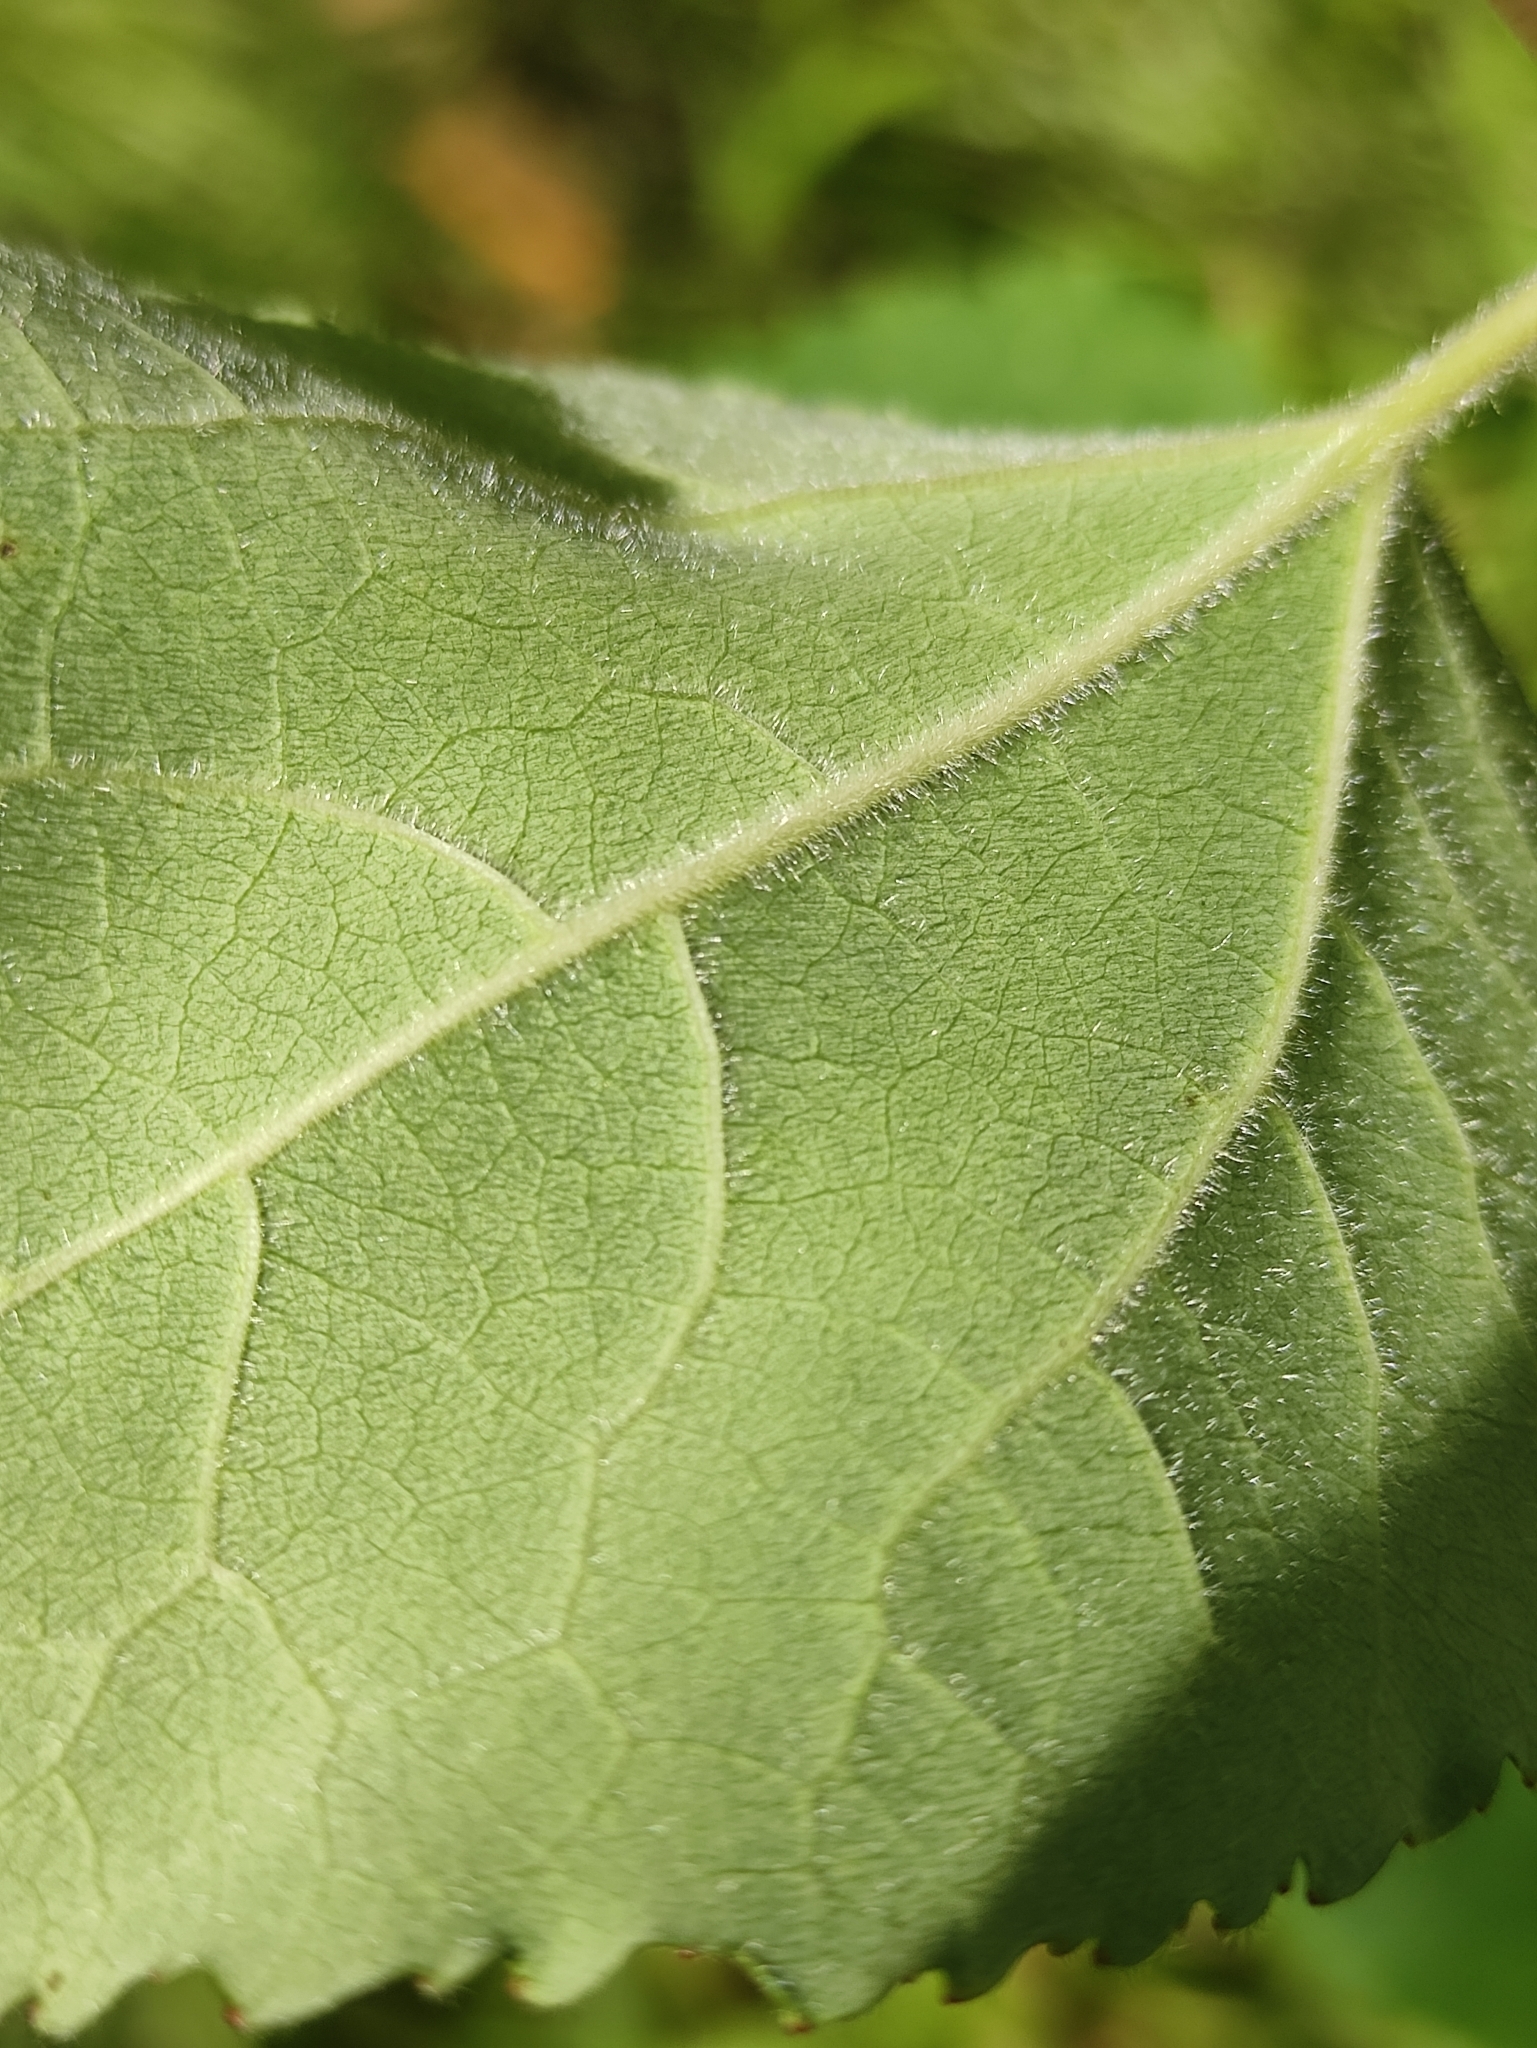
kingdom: Plantae
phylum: Tracheophyta
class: Magnoliopsida
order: Malpighiales
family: Salicaceae
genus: Populus
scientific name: Populus tremula
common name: European aspen
